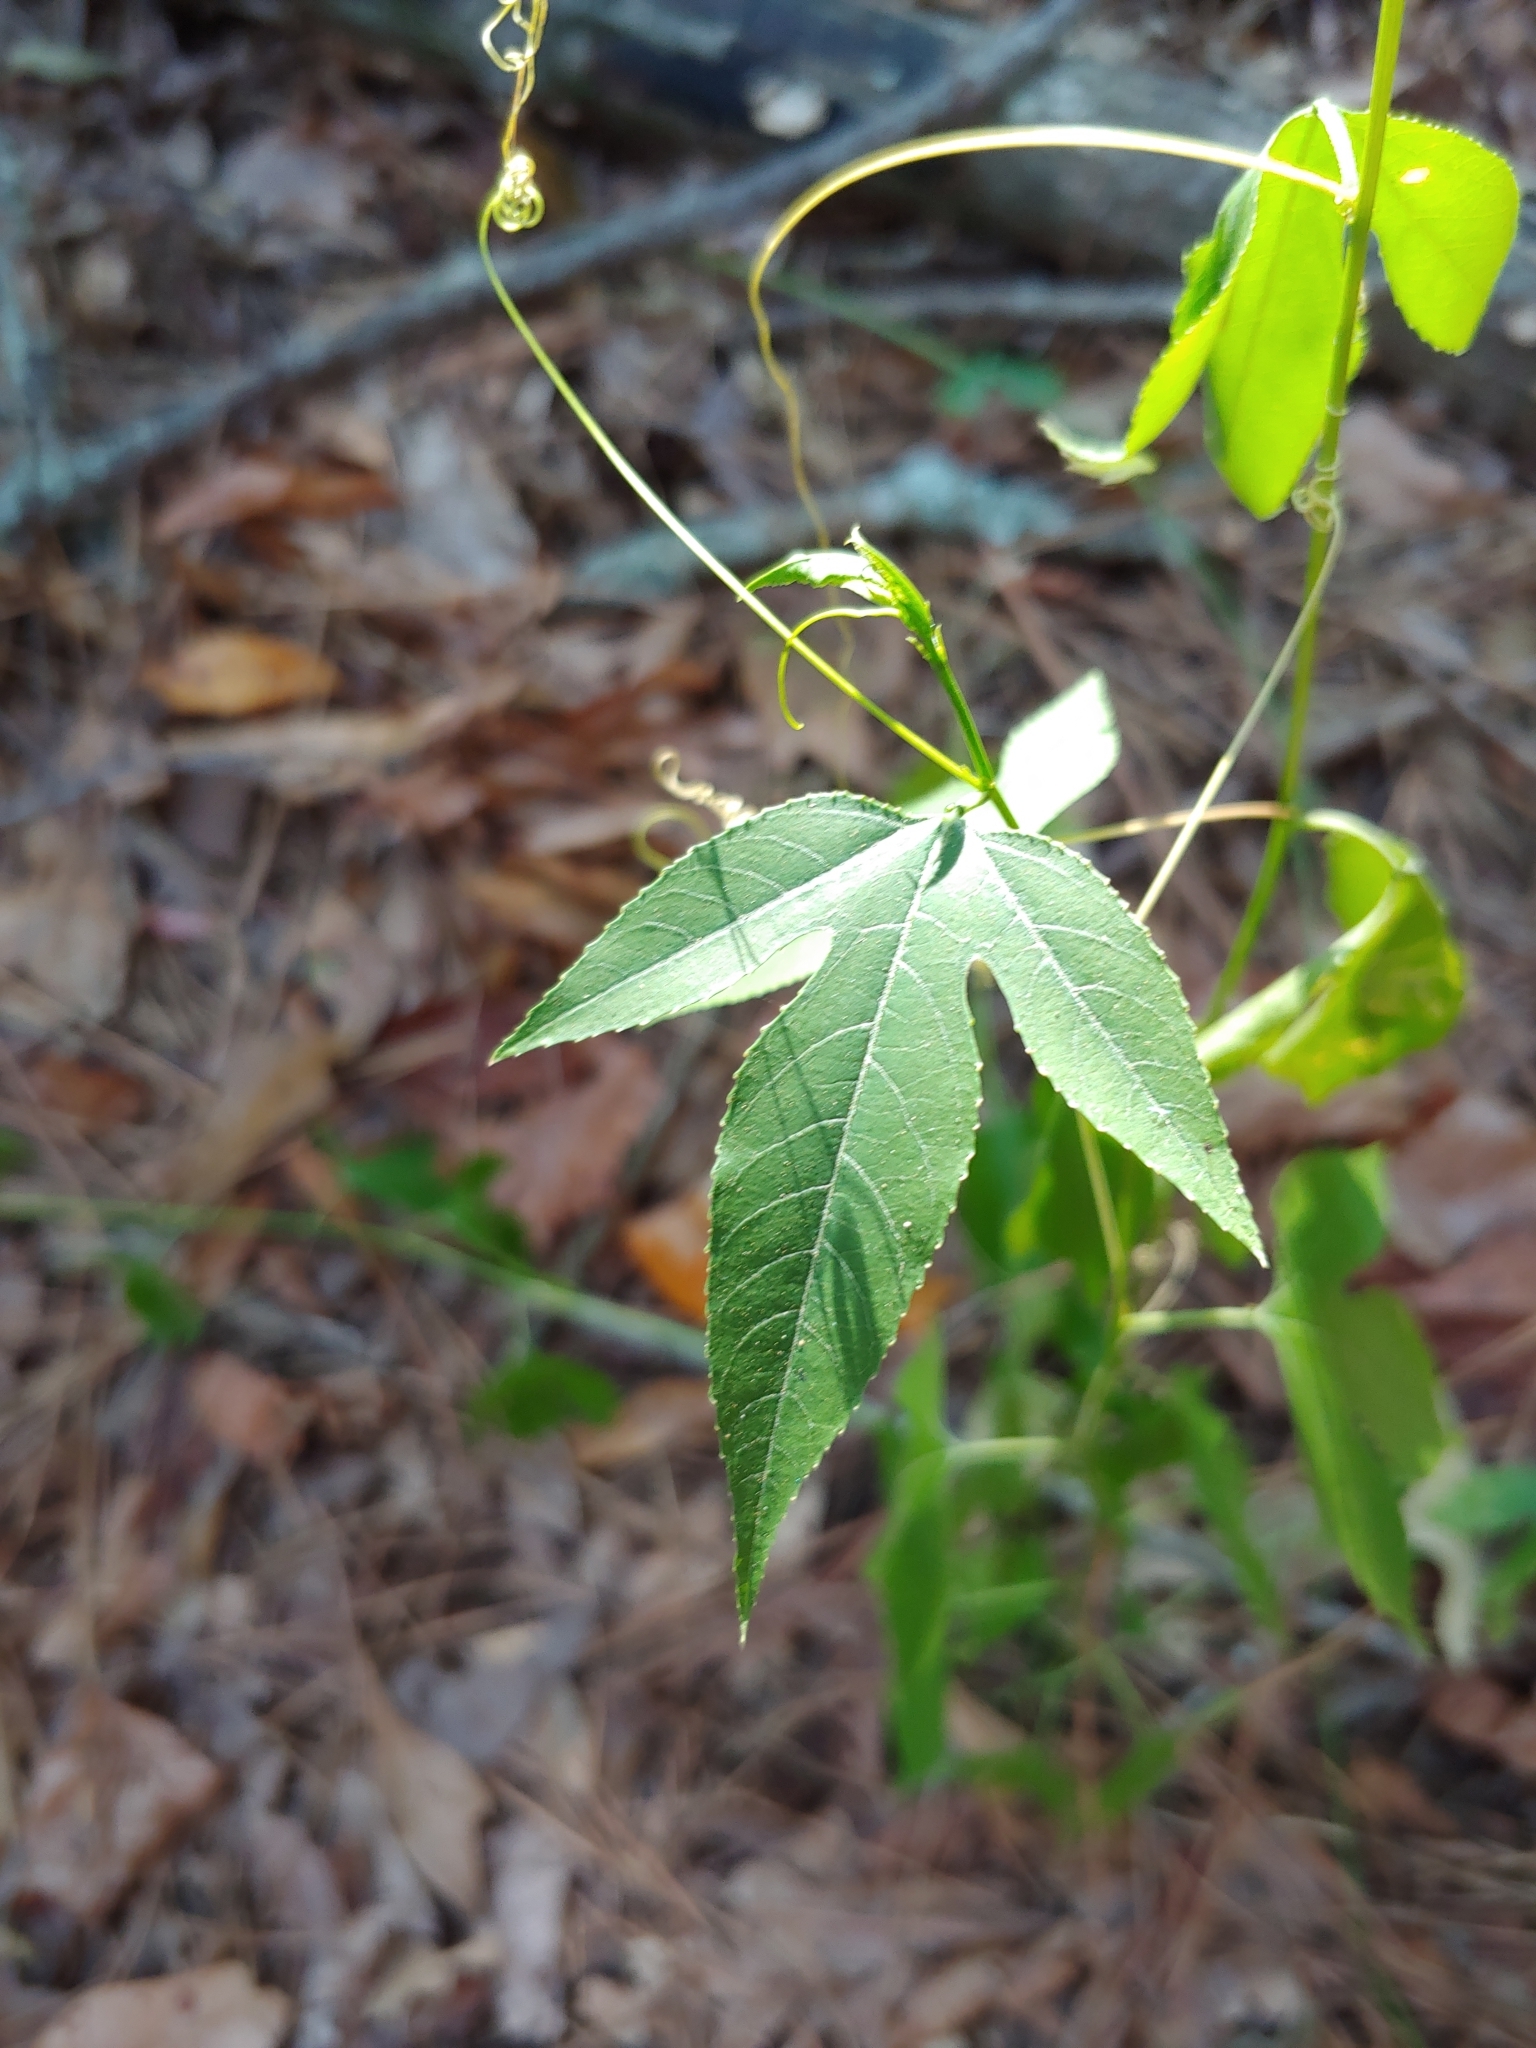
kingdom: Plantae
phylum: Tracheophyta
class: Magnoliopsida
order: Malpighiales
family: Passifloraceae
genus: Passiflora
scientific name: Passiflora incarnata
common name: Apricot-vine
